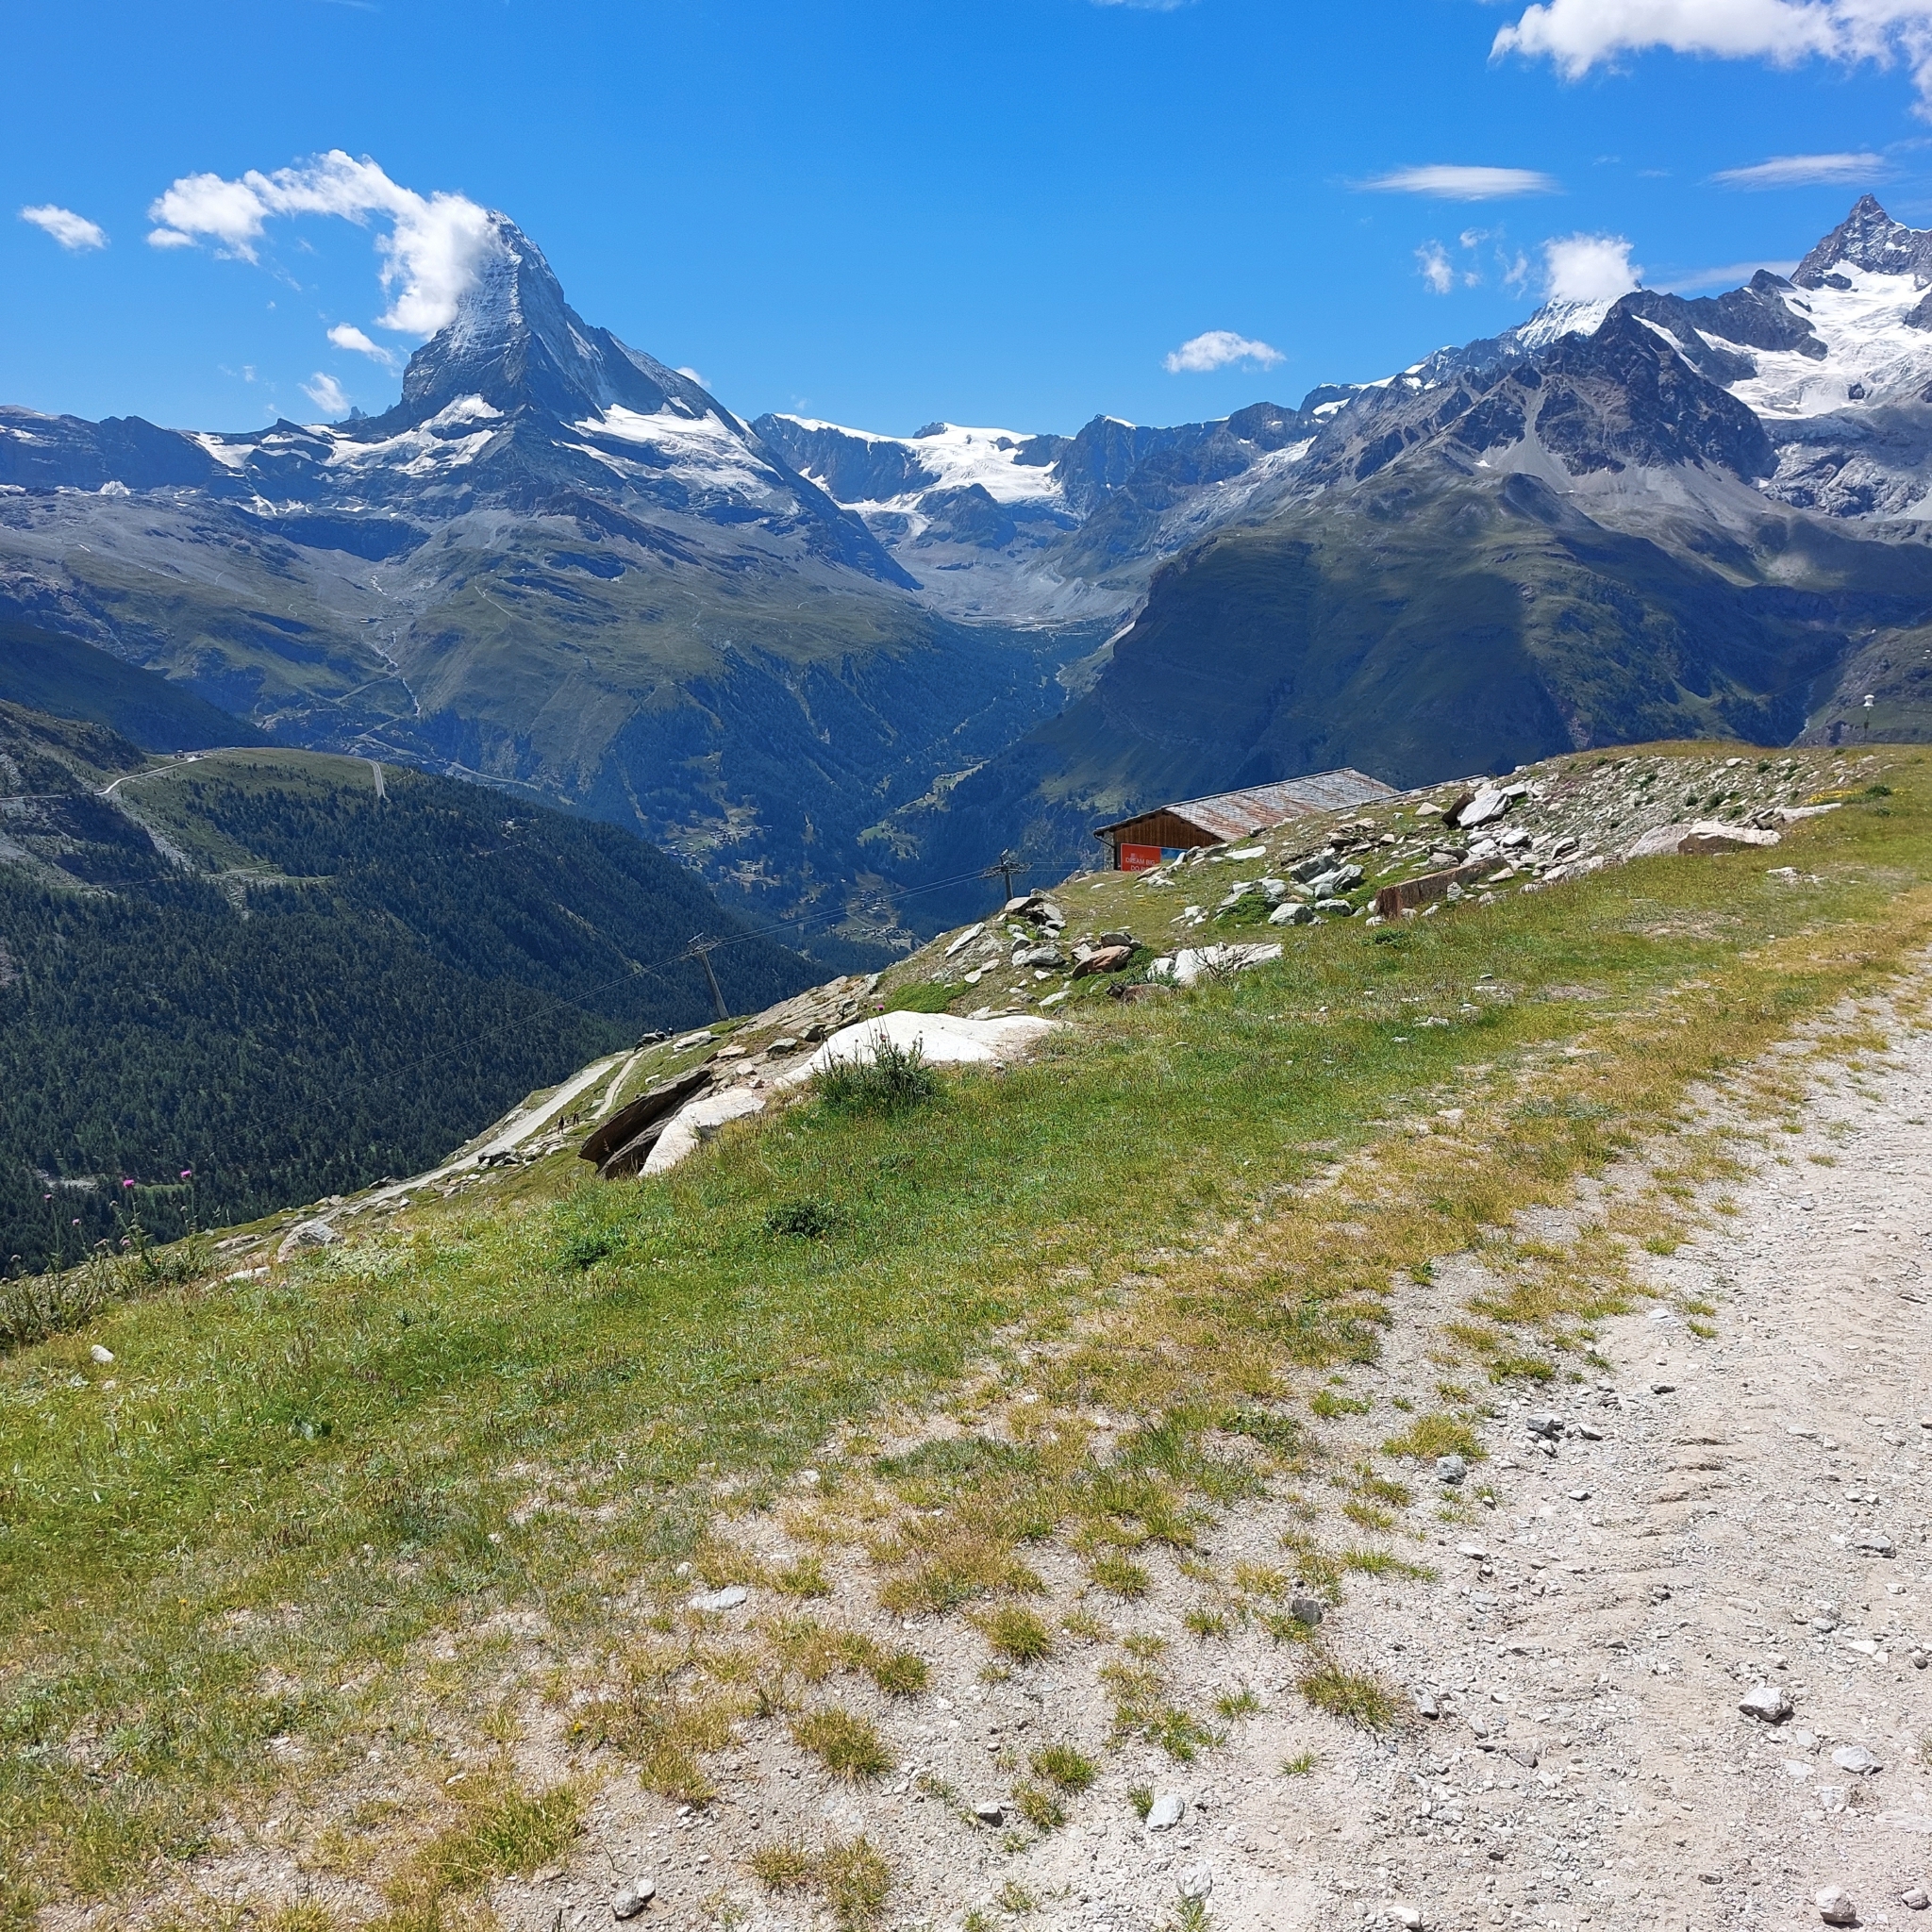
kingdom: Animalia
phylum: Chordata
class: Mammalia
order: Rodentia
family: Sciuridae
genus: Marmota
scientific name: Marmota marmota
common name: Alpine marmot
